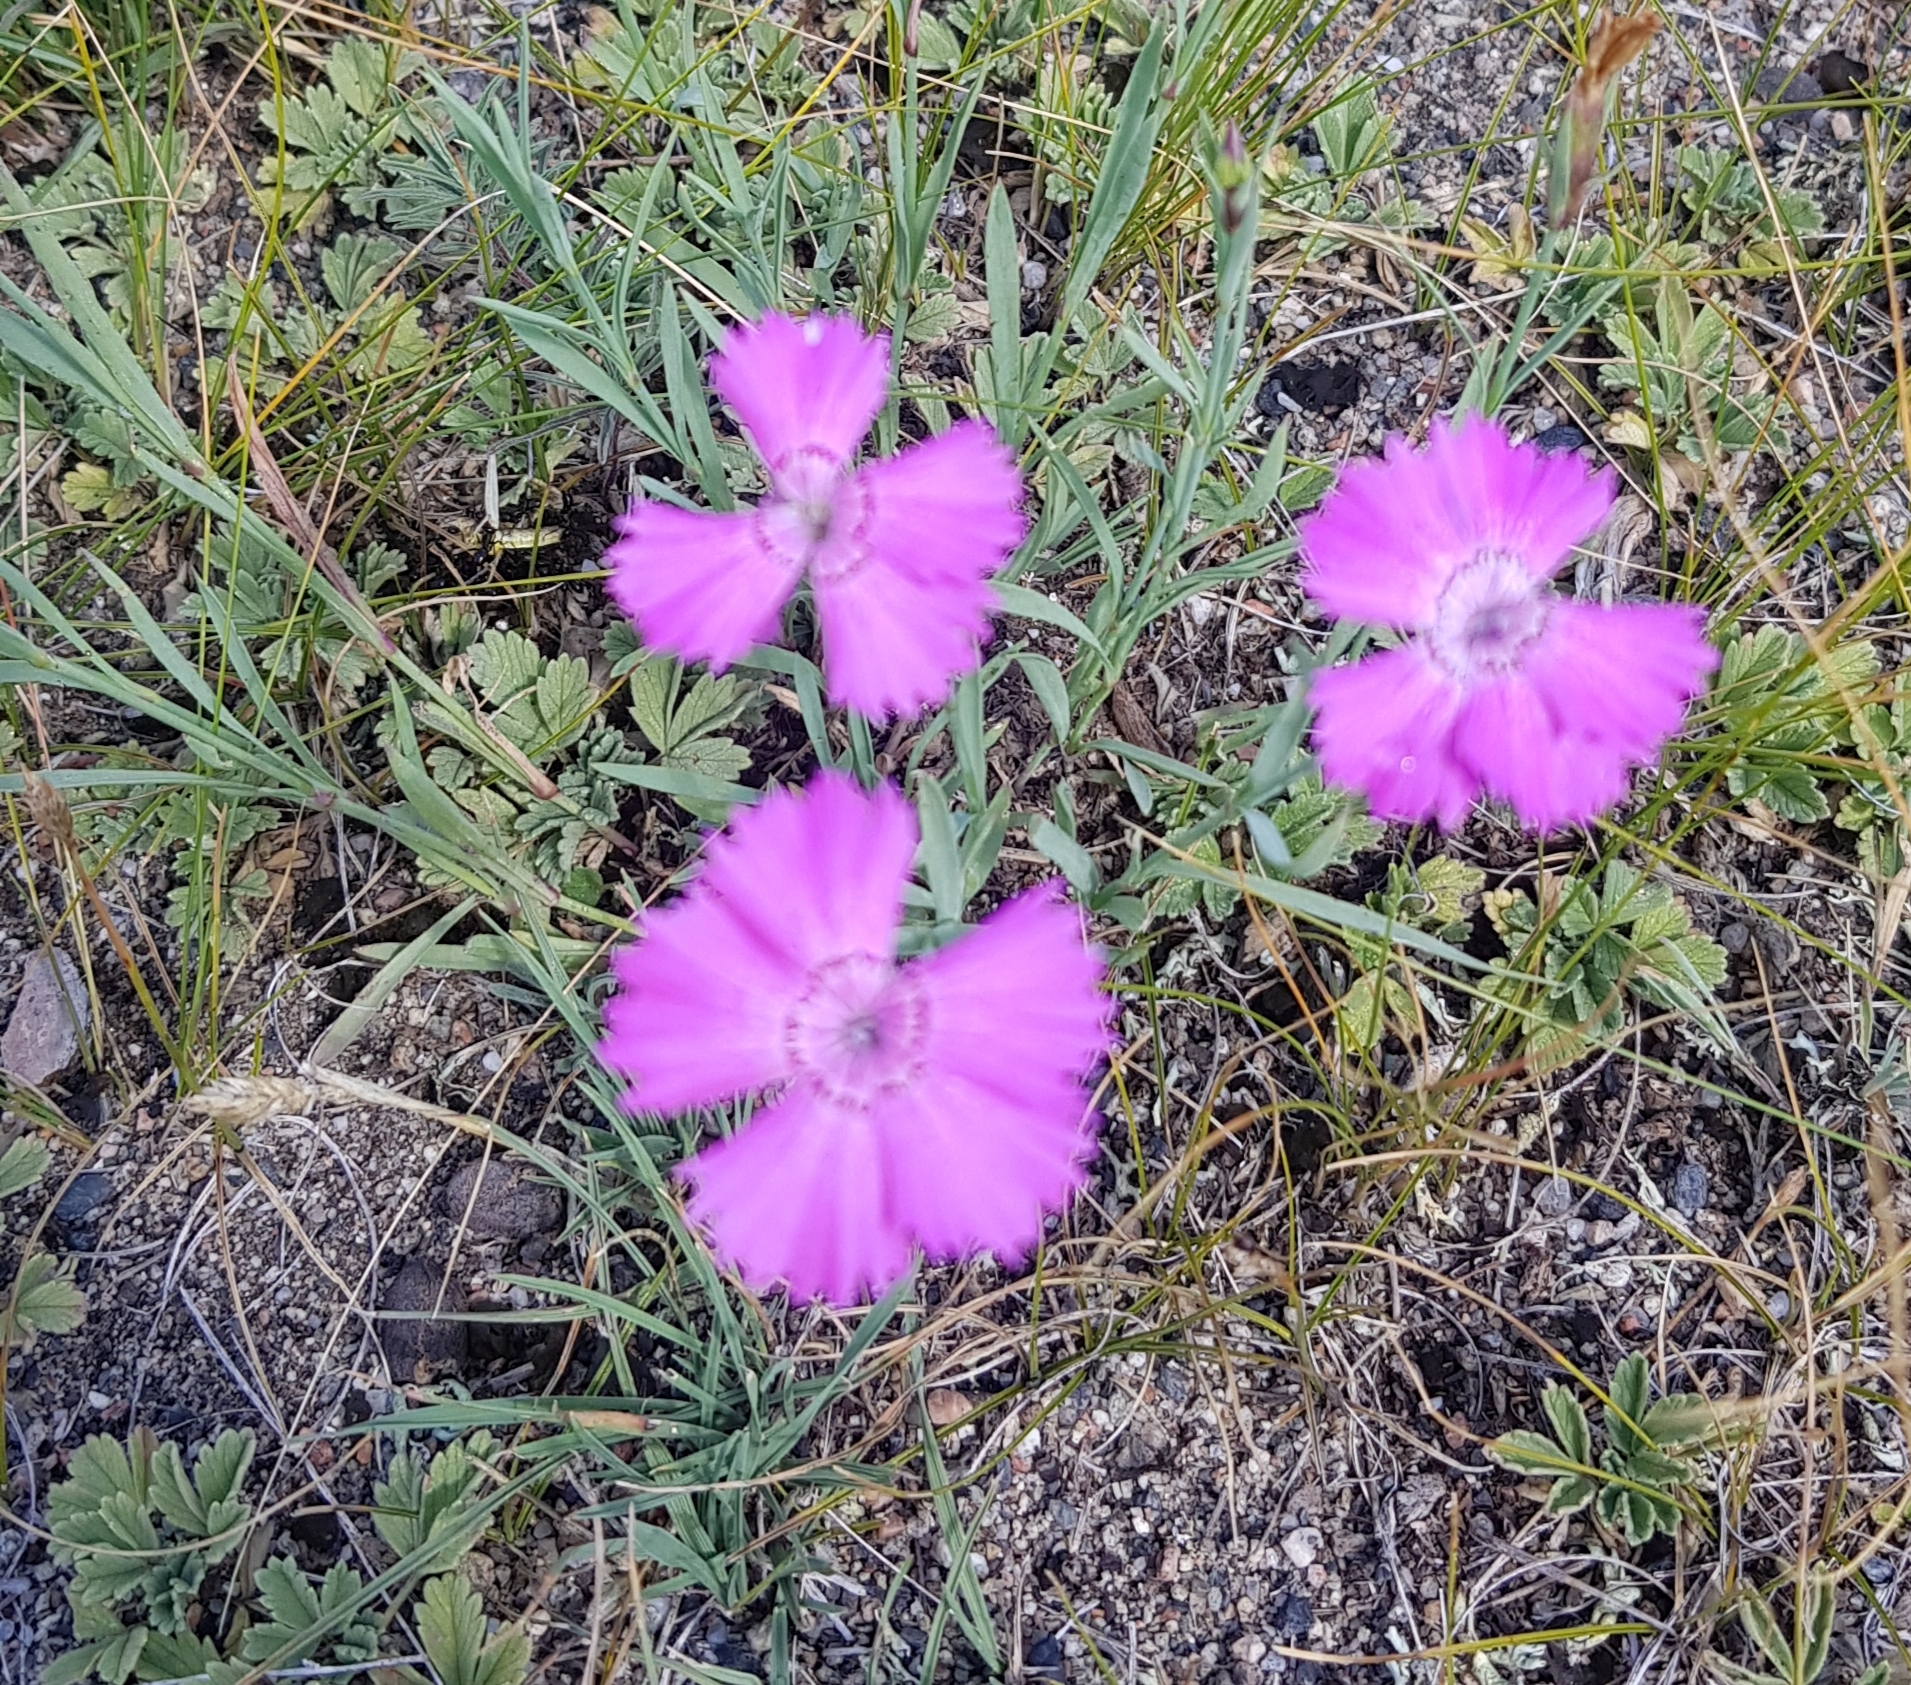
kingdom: Plantae
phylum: Tracheophyta
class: Magnoliopsida
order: Caryophyllales
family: Caryophyllaceae
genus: Dianthus
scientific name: Dianthus chinensis
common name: Rainbow pink
